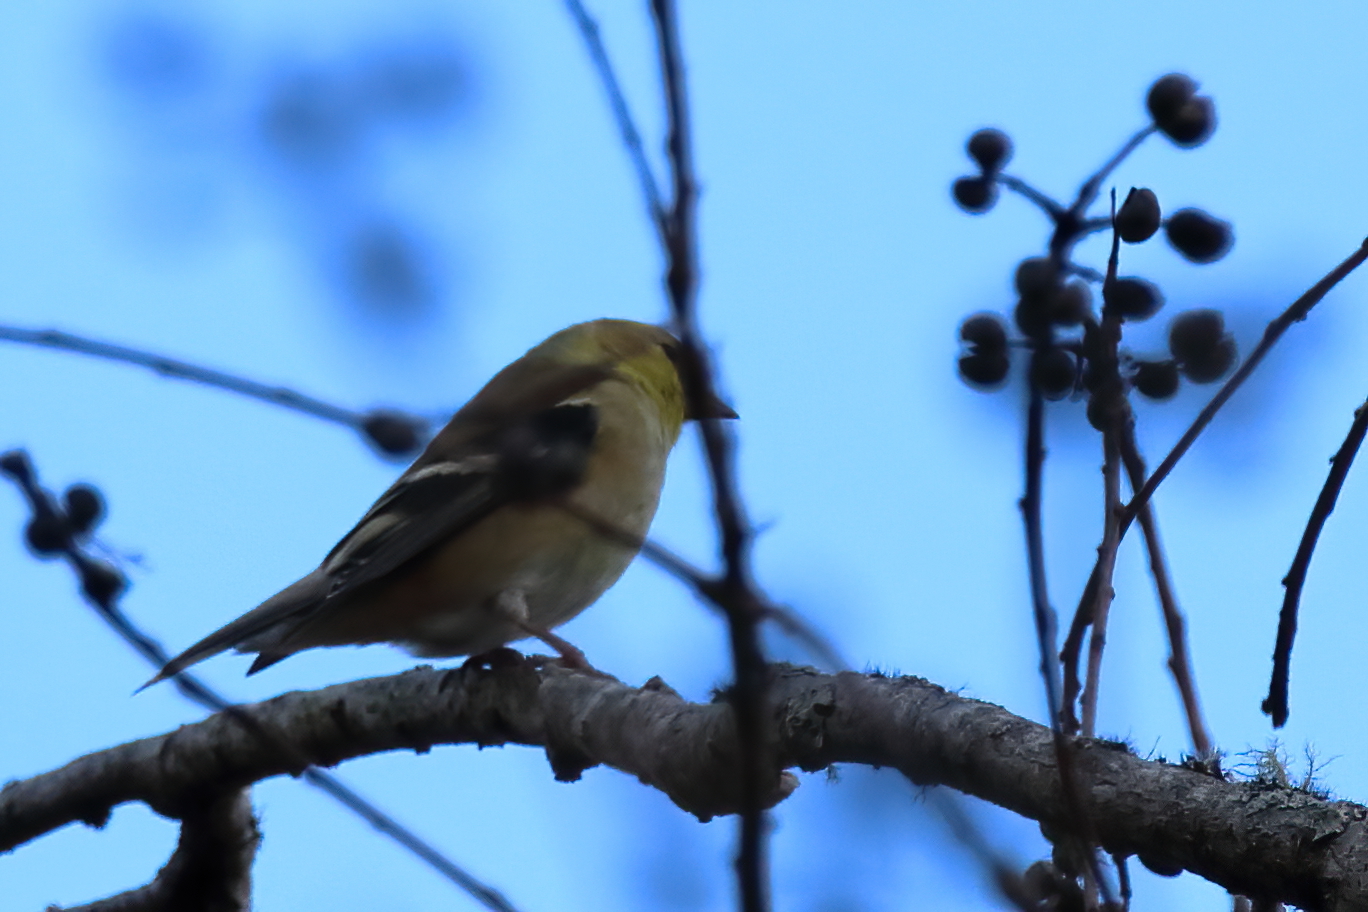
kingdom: Animalia
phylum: Chordata
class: Aves
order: Passeriformes
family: Fringillidae
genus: Spinus
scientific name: Spinus tristis
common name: American goldfinch
